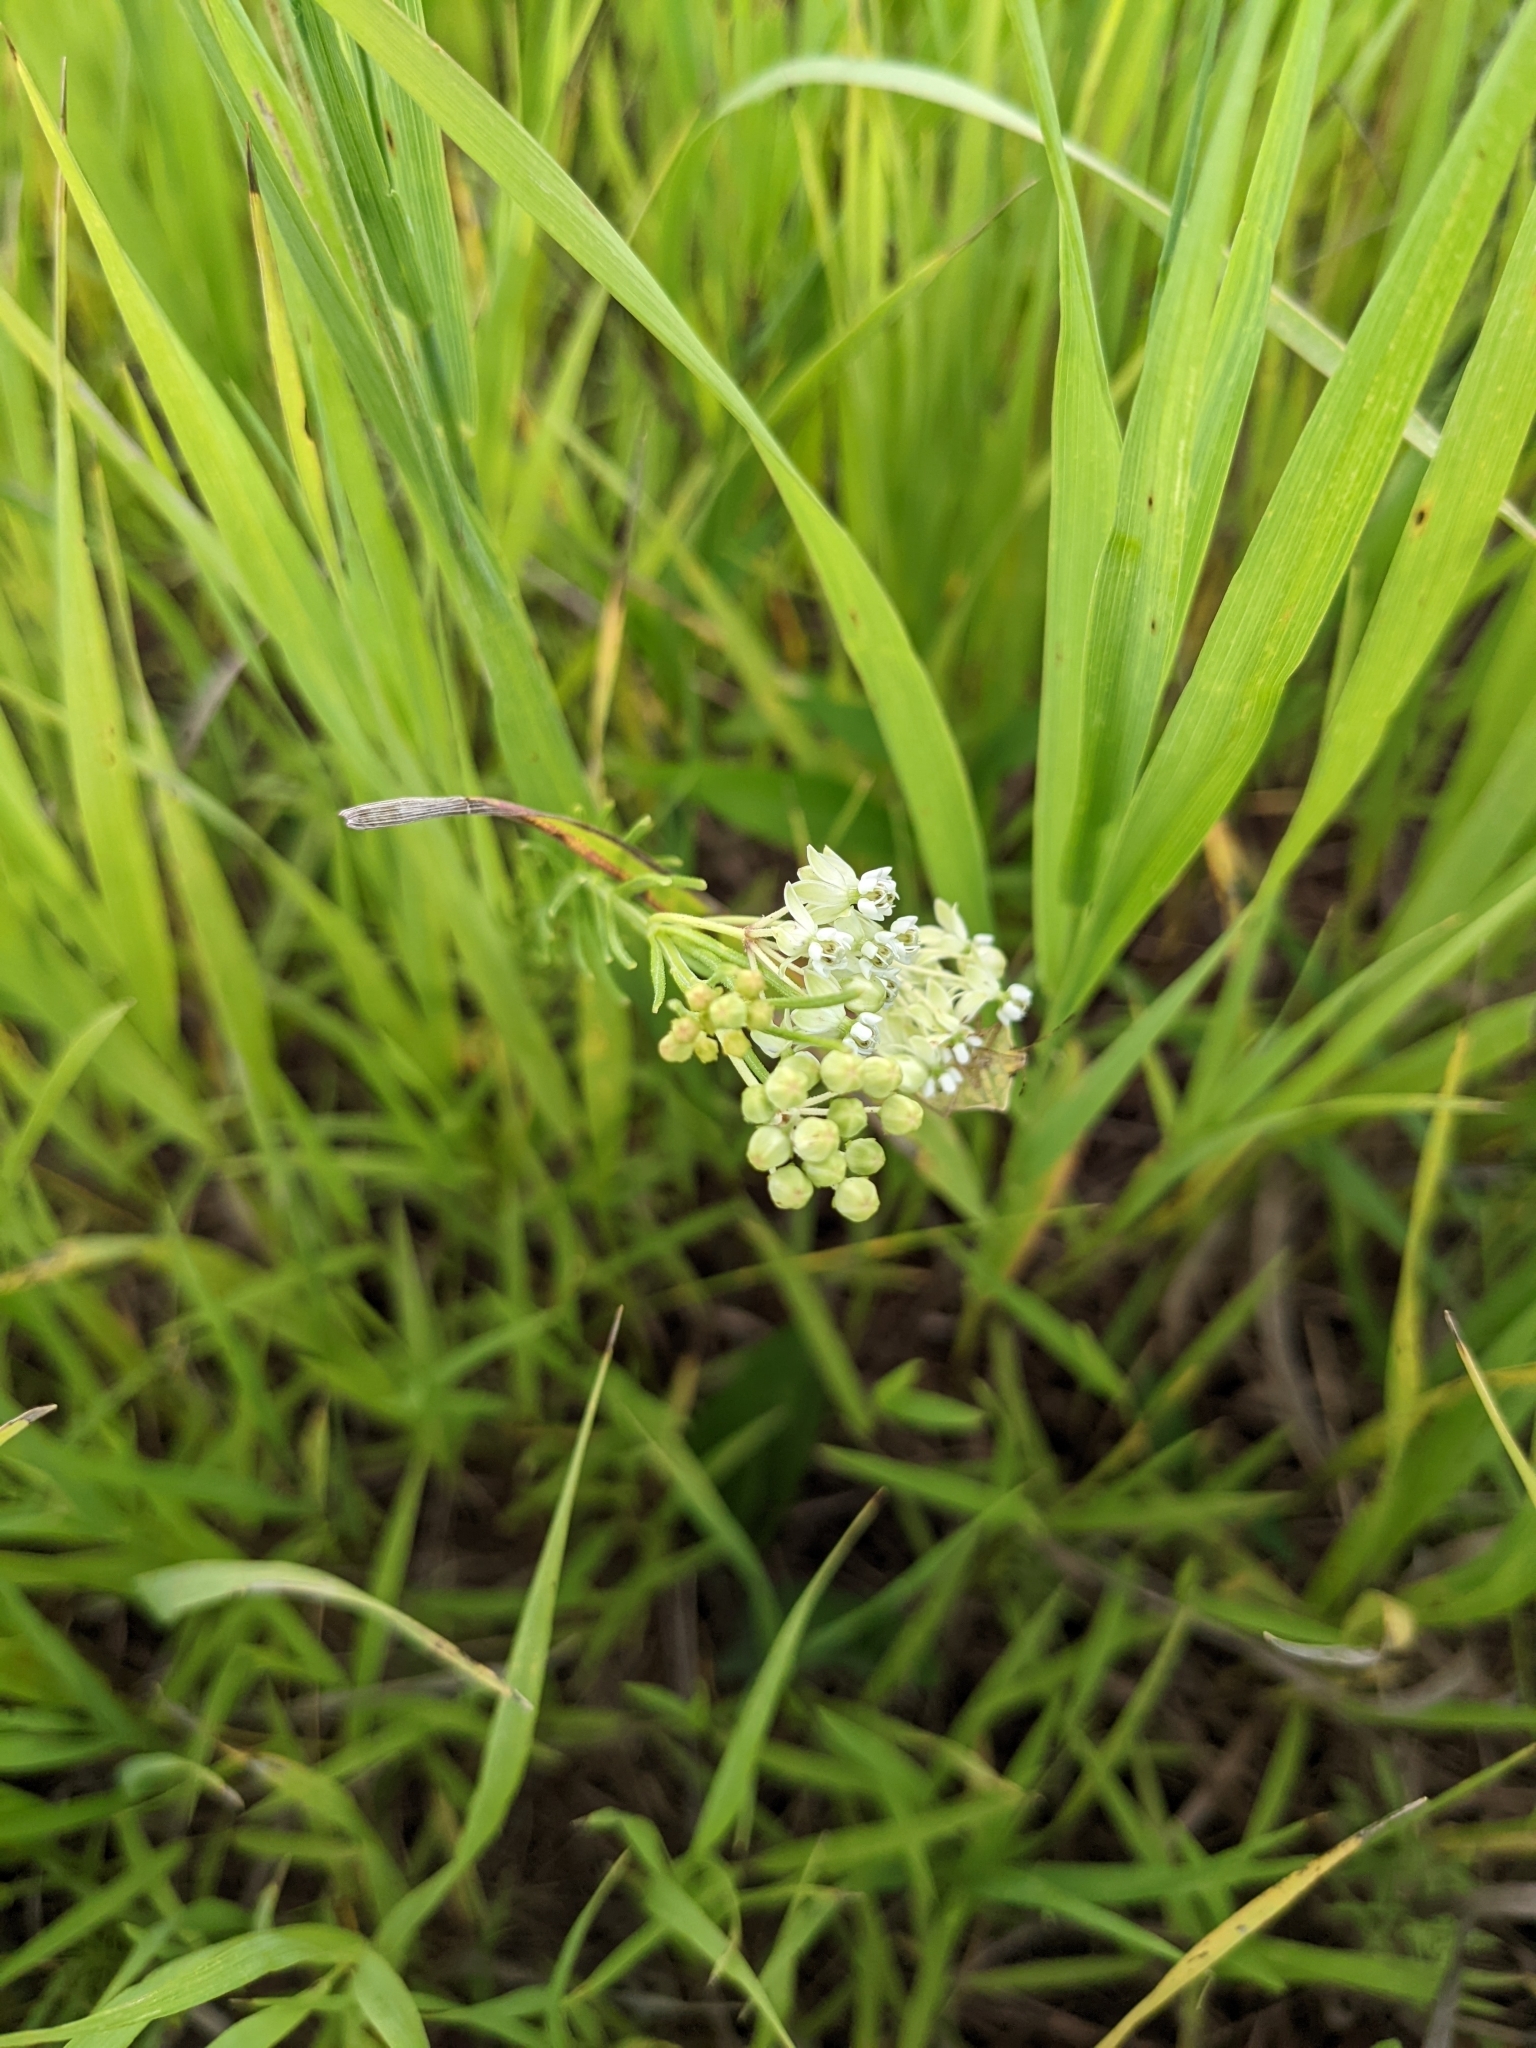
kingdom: Plantae
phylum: Tracheophyta
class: Magnoliopsida
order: Gentianales
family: Apocynaceae
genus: Asclepias
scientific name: Asclepias verticillata
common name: Eastern whorled milkweed
